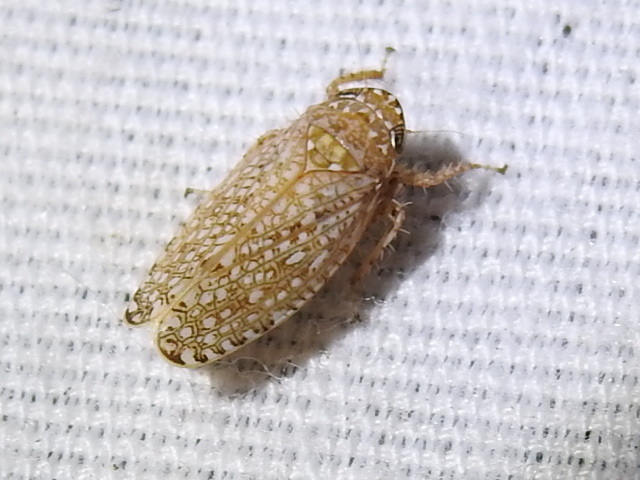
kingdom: Animalia
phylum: Arthropoda
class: Insecta
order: Hemiptera
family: Cicadellidae
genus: Texananus
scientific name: Texananus areolatus
